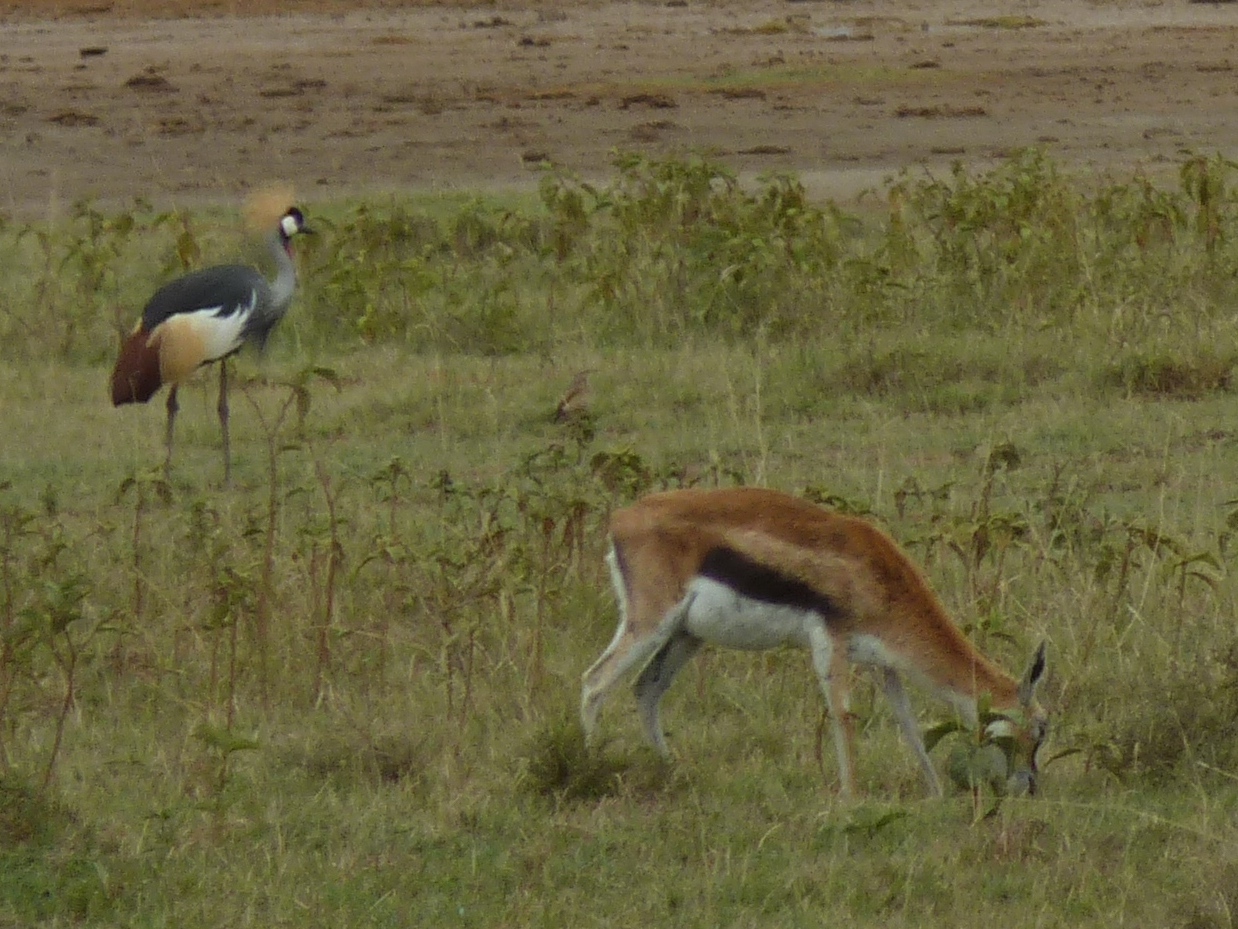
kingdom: Animalia
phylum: Chordata
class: Aves
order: Gruiformes
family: Gruidae
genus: Balearica
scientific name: Balearica regulorum
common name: Grey crowned crane
